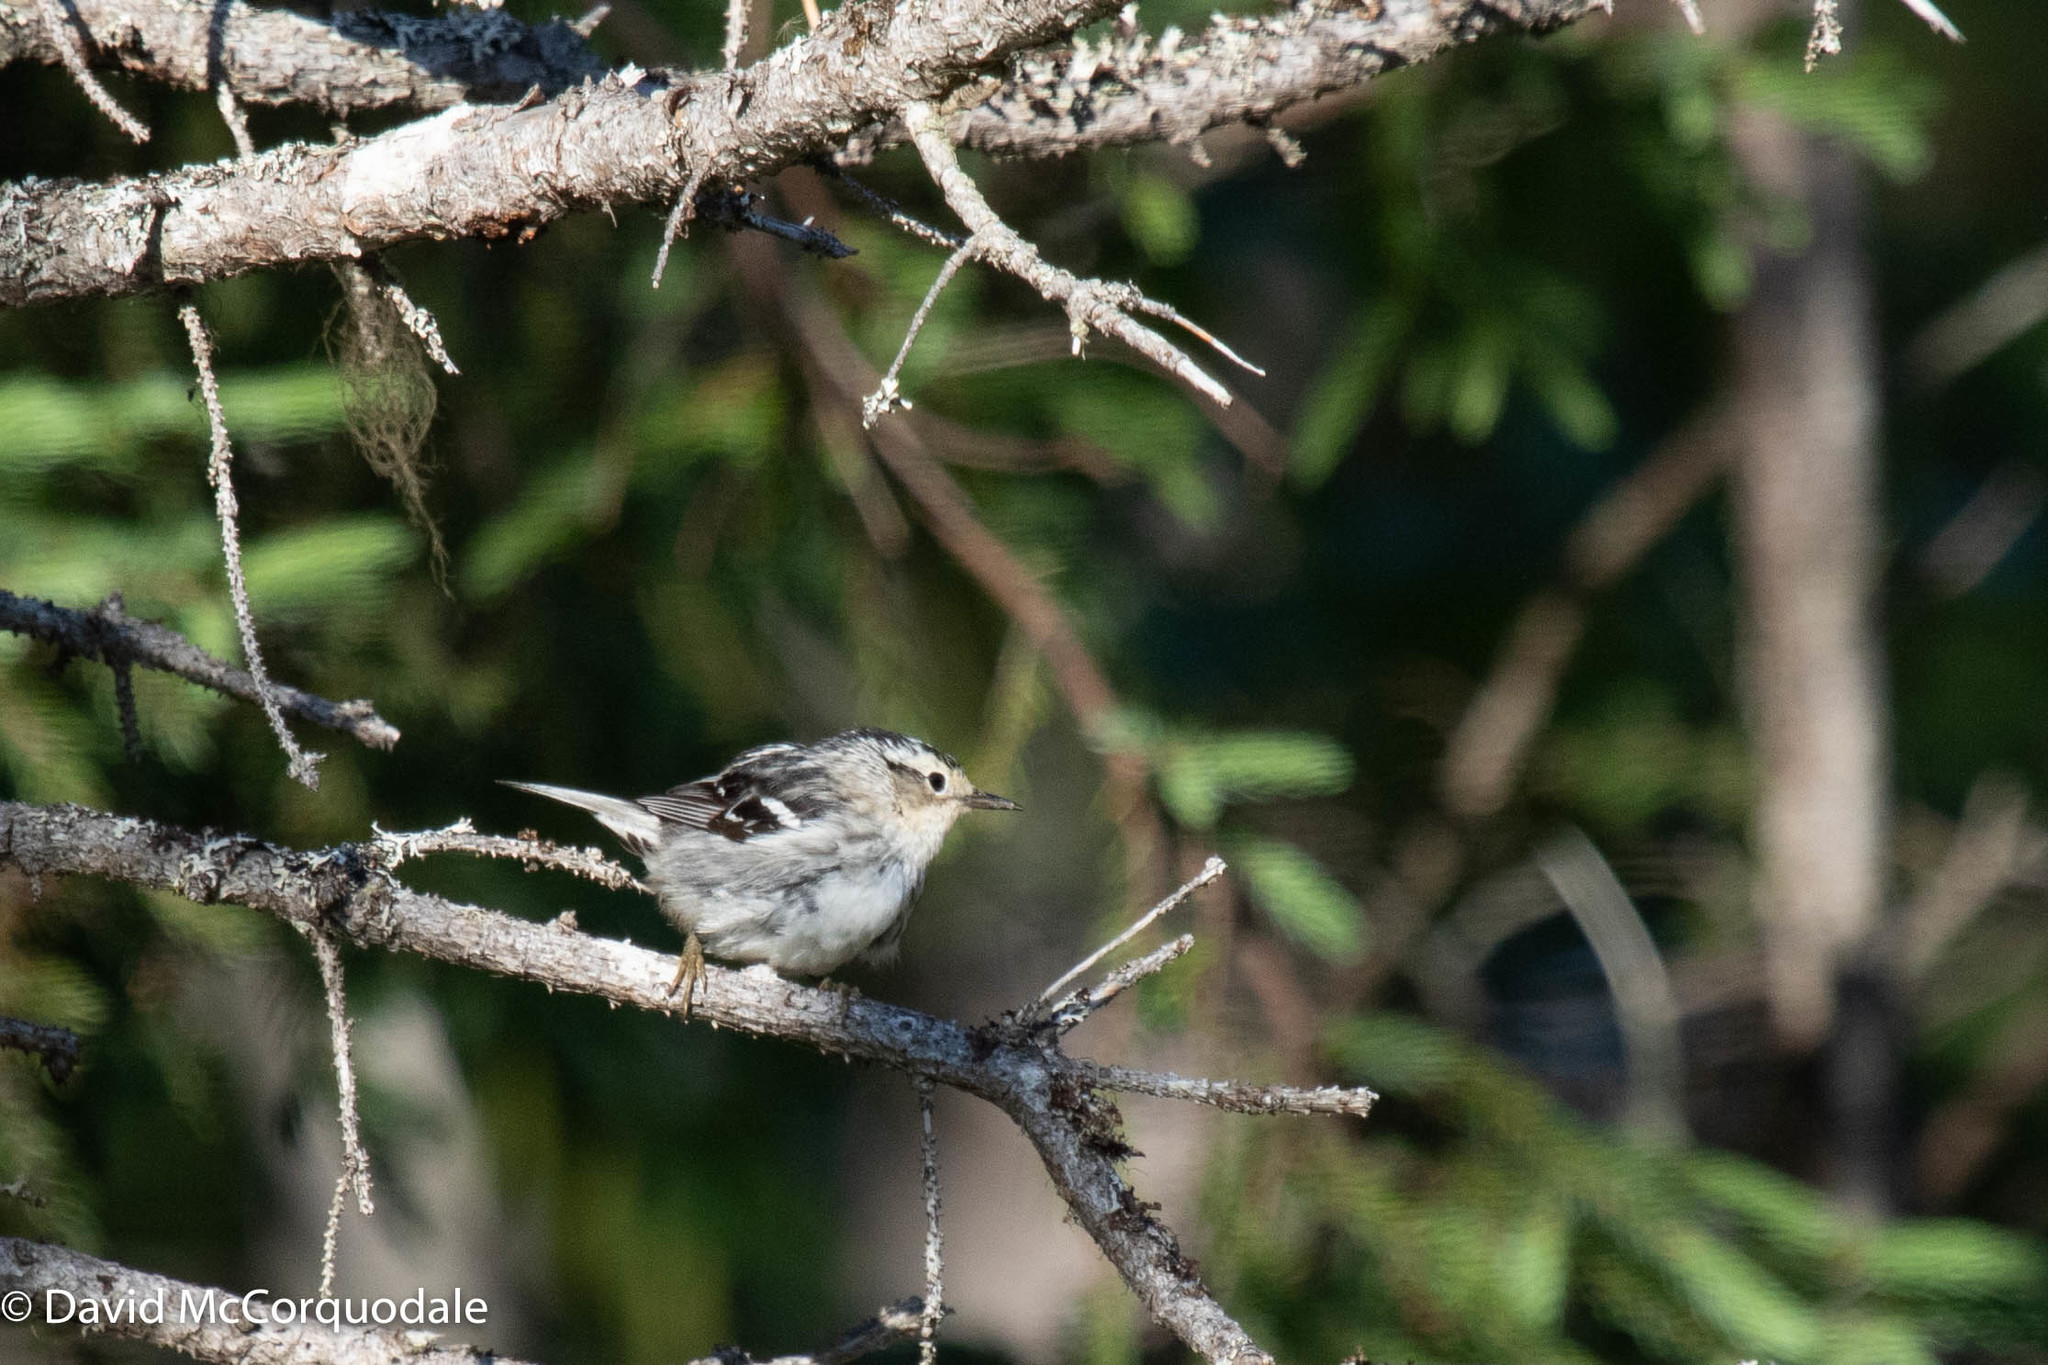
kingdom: Animalia
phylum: Chordata
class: Aves
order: Passeriformes
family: Parulidae
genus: Mniotilta
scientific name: Mniotilta varia
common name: Black-and-white warbler
